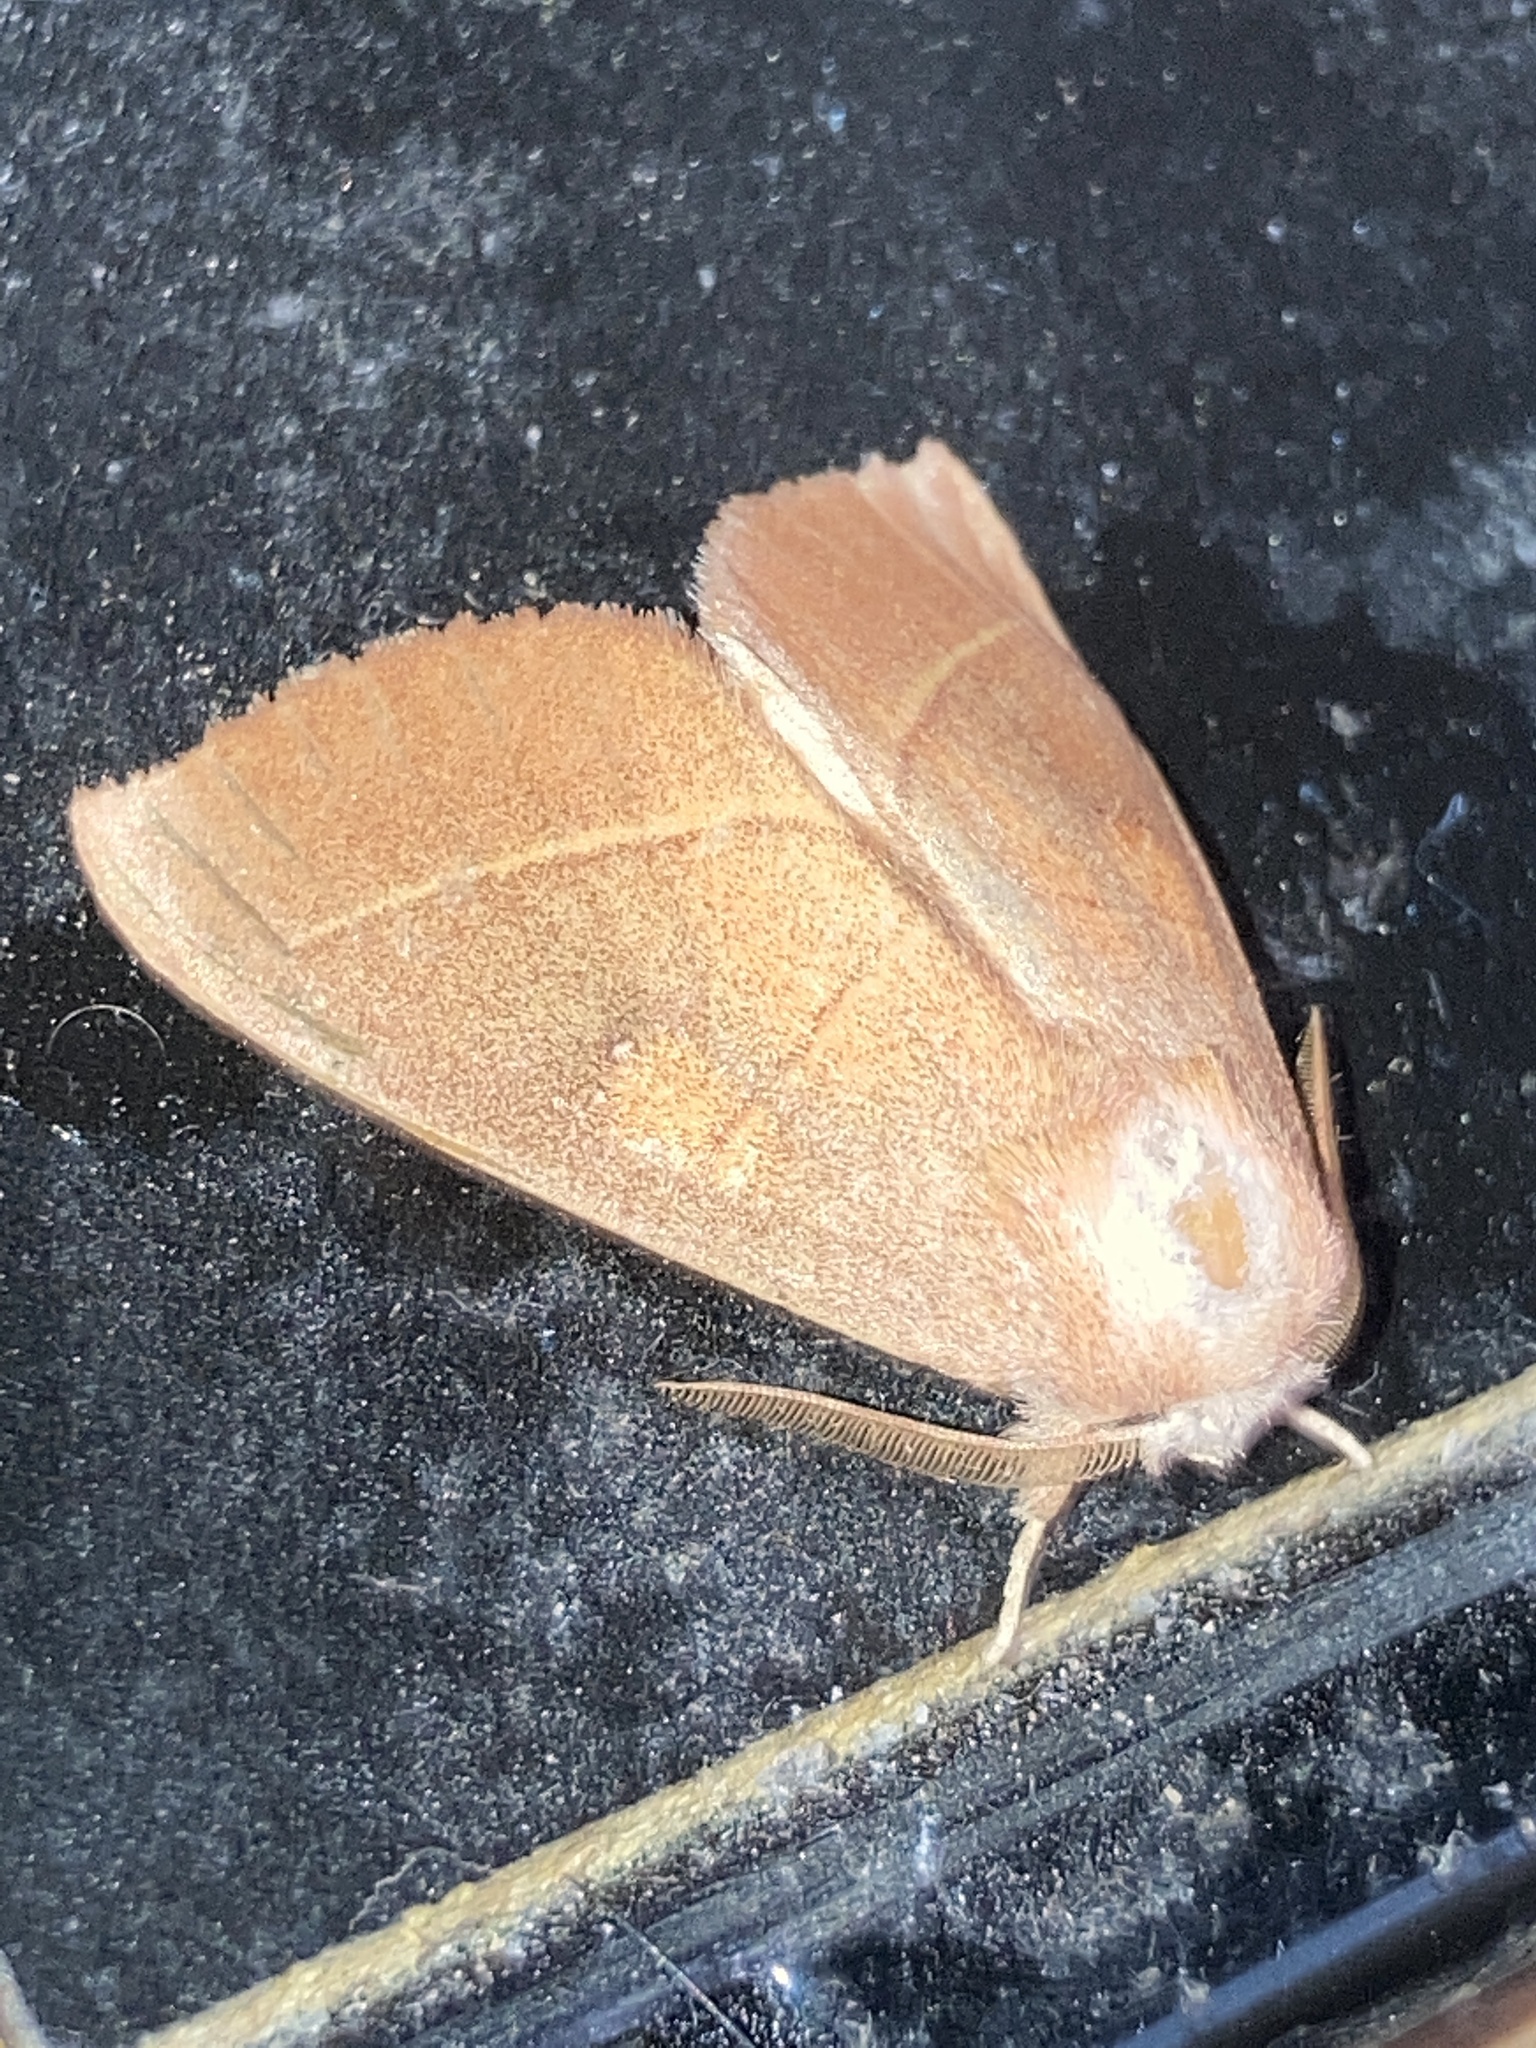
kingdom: Animalia
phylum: Arthropoda
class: Insecta
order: Lepidoptera
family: Notodontidae
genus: Nadata
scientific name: Nadata gibbosa
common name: White-dotted prominent
